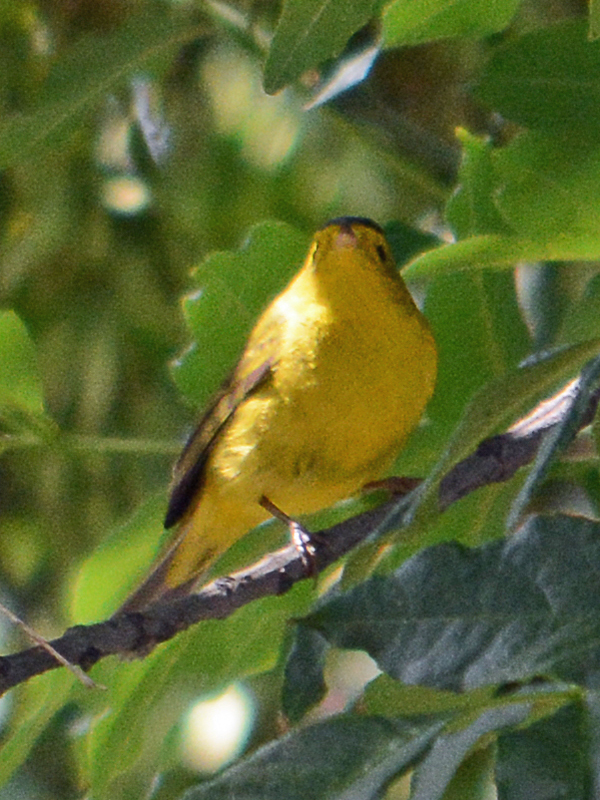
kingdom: Animalia
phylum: Chordata
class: Aves
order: Passeriformes
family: Parulidae
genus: Cardellina
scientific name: Cardellina pusilla
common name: Wilson's warbler
